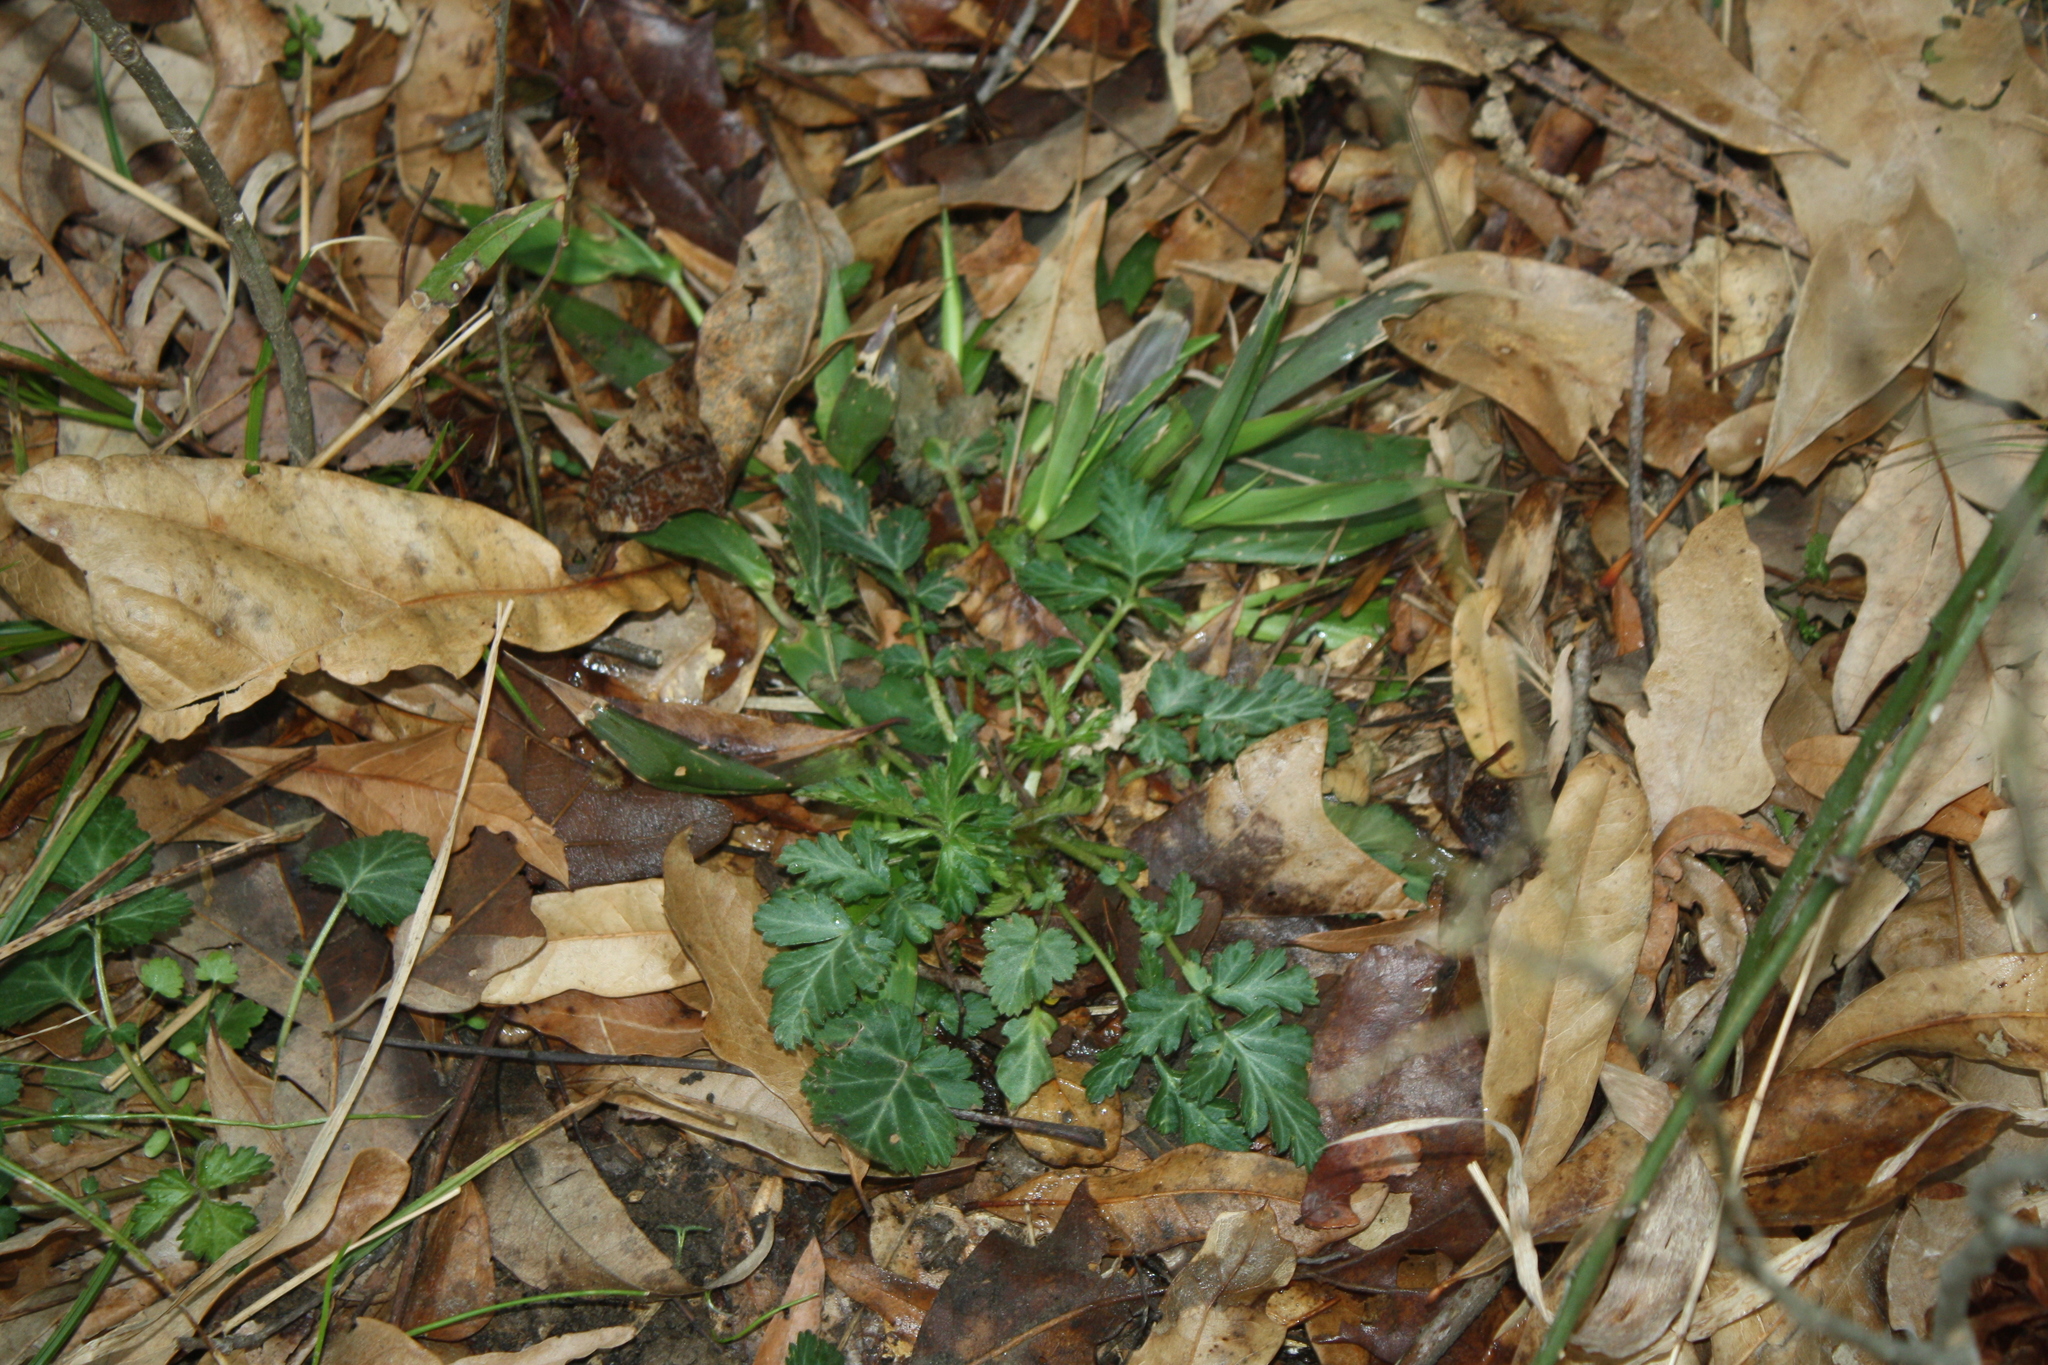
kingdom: Plantae
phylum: Tracheophyta
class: Magnoliopsida
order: Rosales
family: Rosaceae
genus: Geum
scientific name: Geum canadense
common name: White avens
